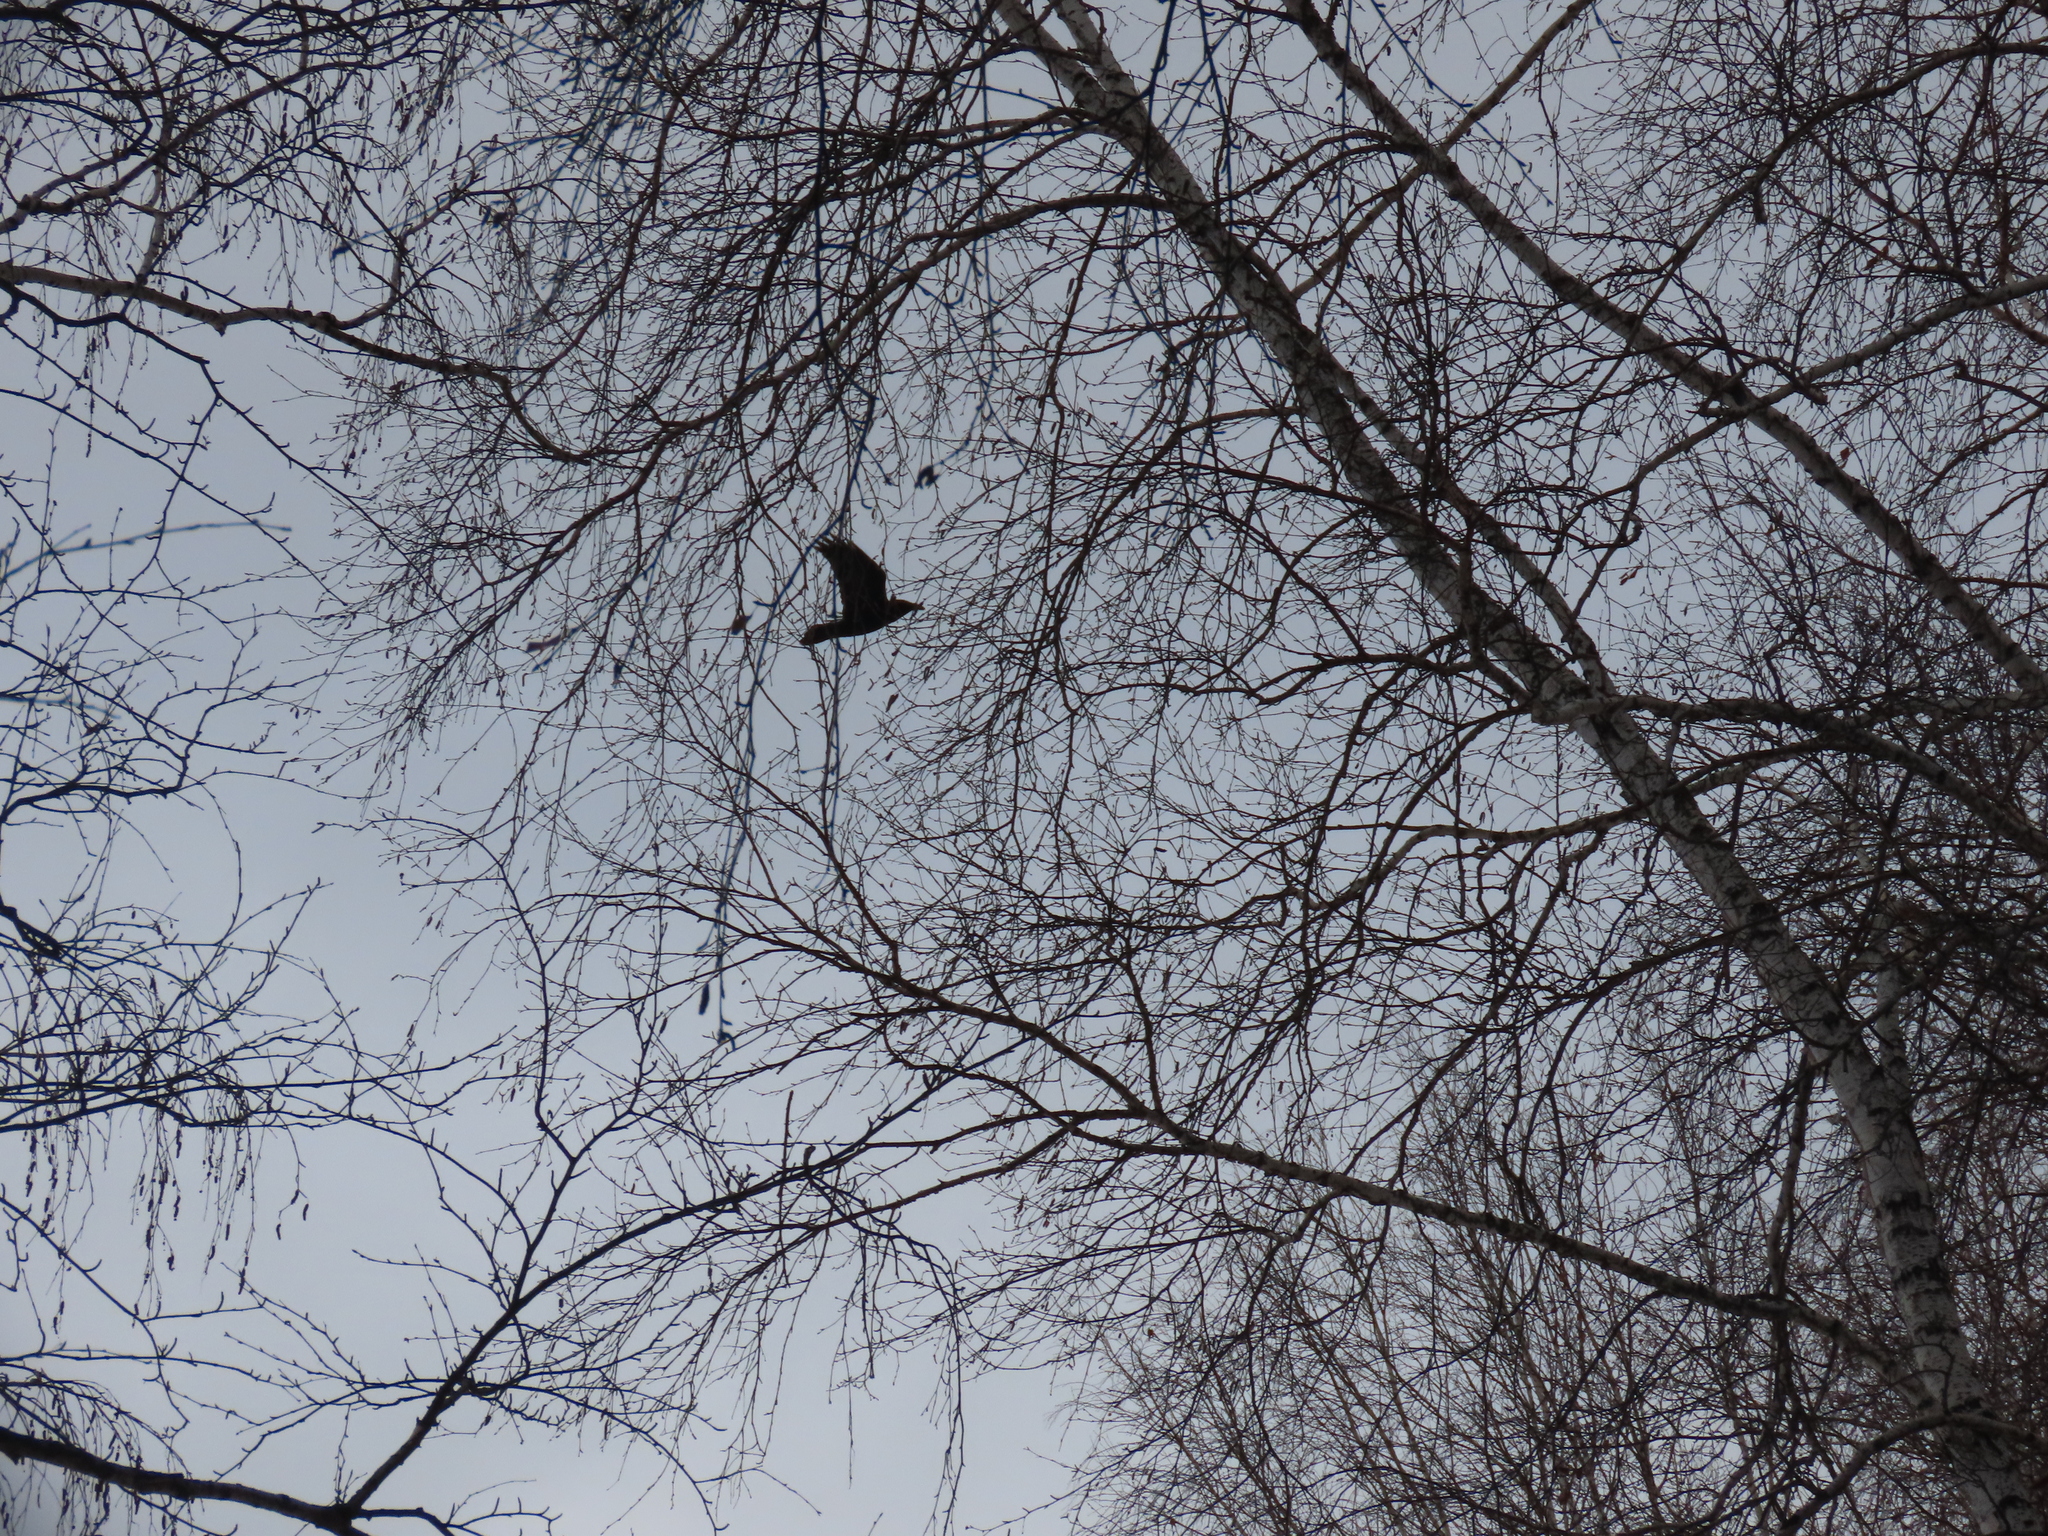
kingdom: Animalia
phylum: Chordata
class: Aves
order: Passeriformes
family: Corvidae
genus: Corvus
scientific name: Corvus corax
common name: Common raven
